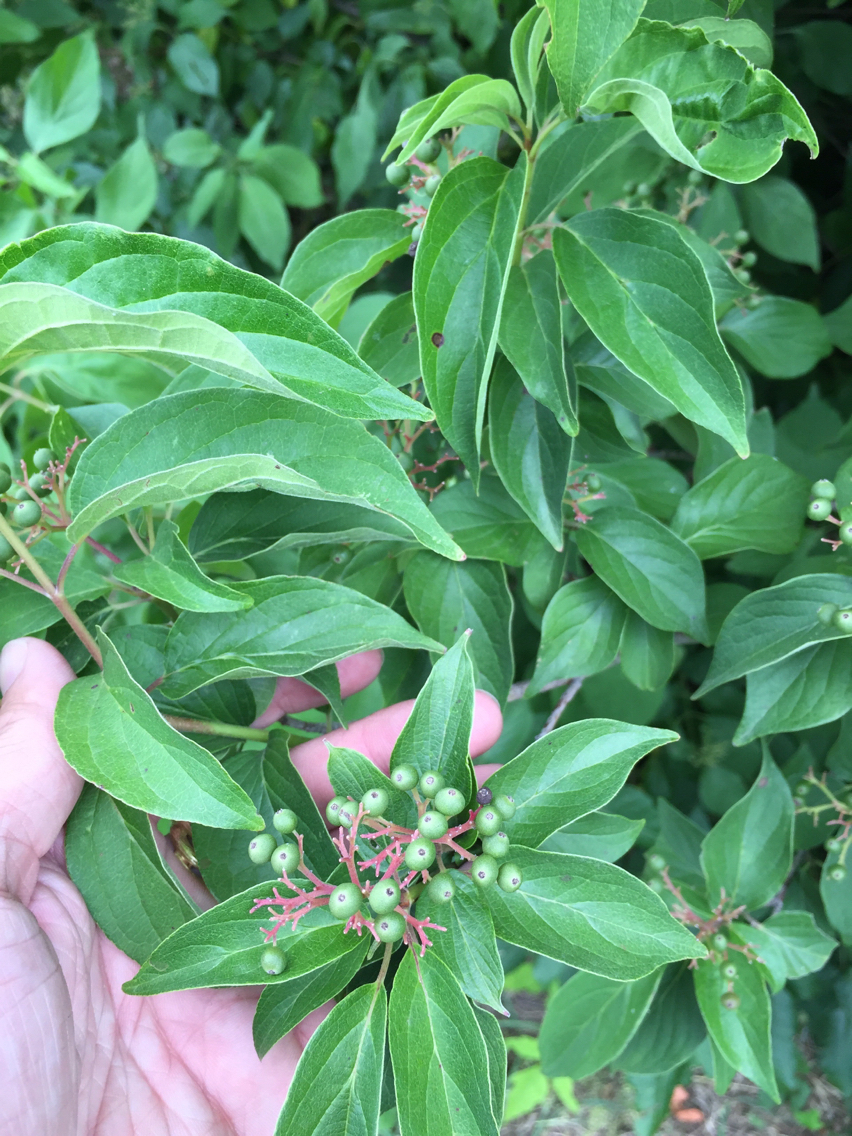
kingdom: Plantae
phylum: Tracheophyta
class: Magnoliopsida
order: Cornales
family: Cornaceae
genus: Cornus
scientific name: Cornus drummondii
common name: Rough-leaf dogwood
